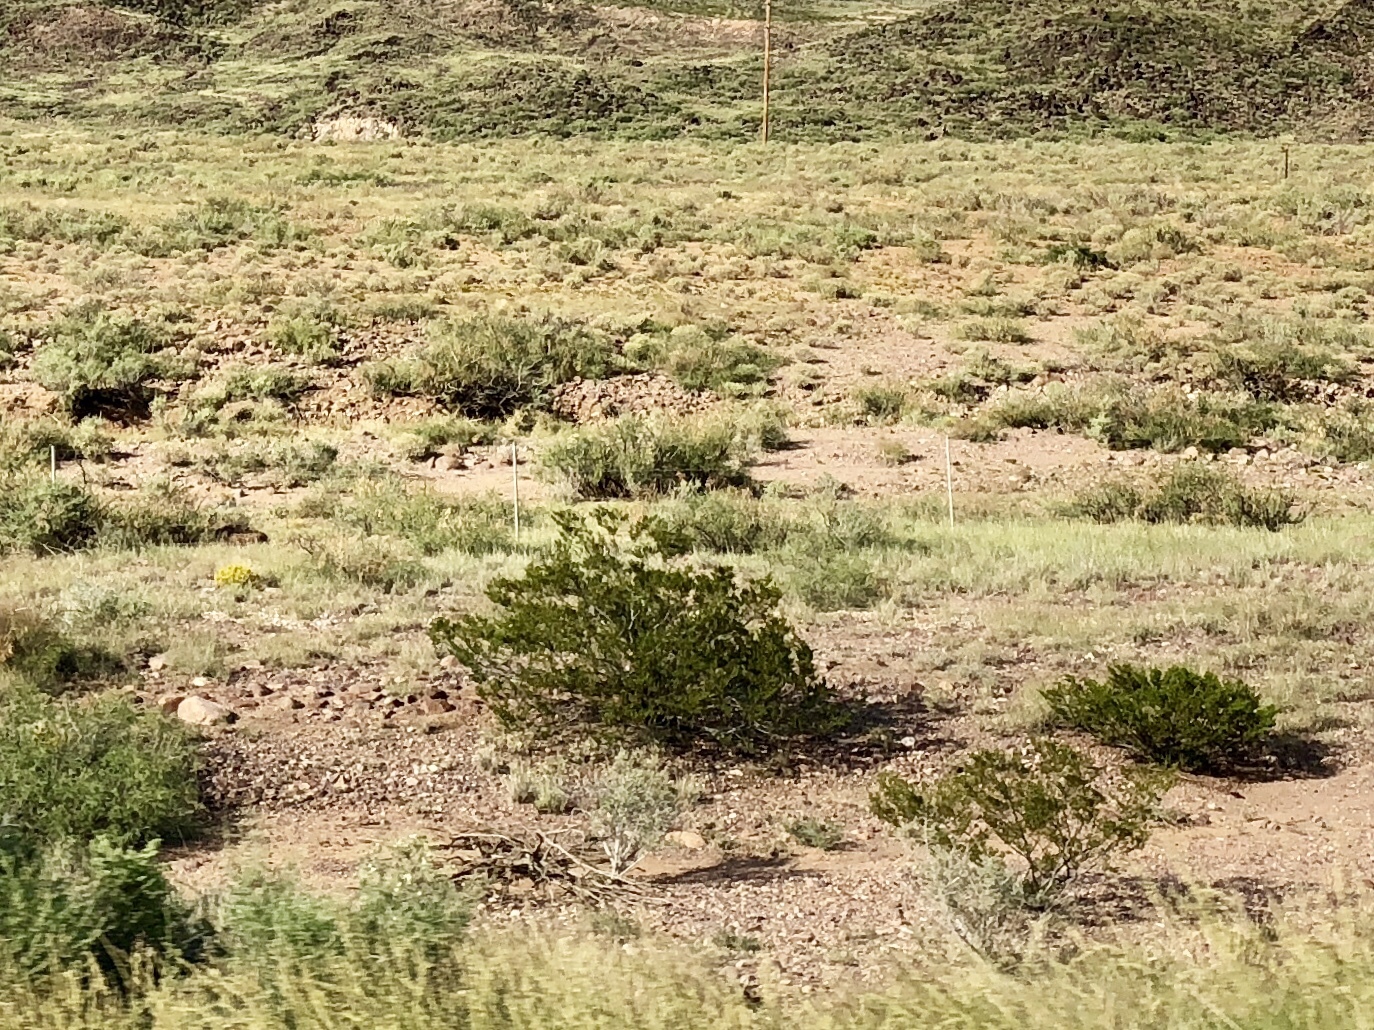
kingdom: Plantae
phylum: Tracheophyta
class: Magnoliopsida
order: Zygophyllales
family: Zygophyllaceae
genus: Larrea
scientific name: Larrea tridentata
